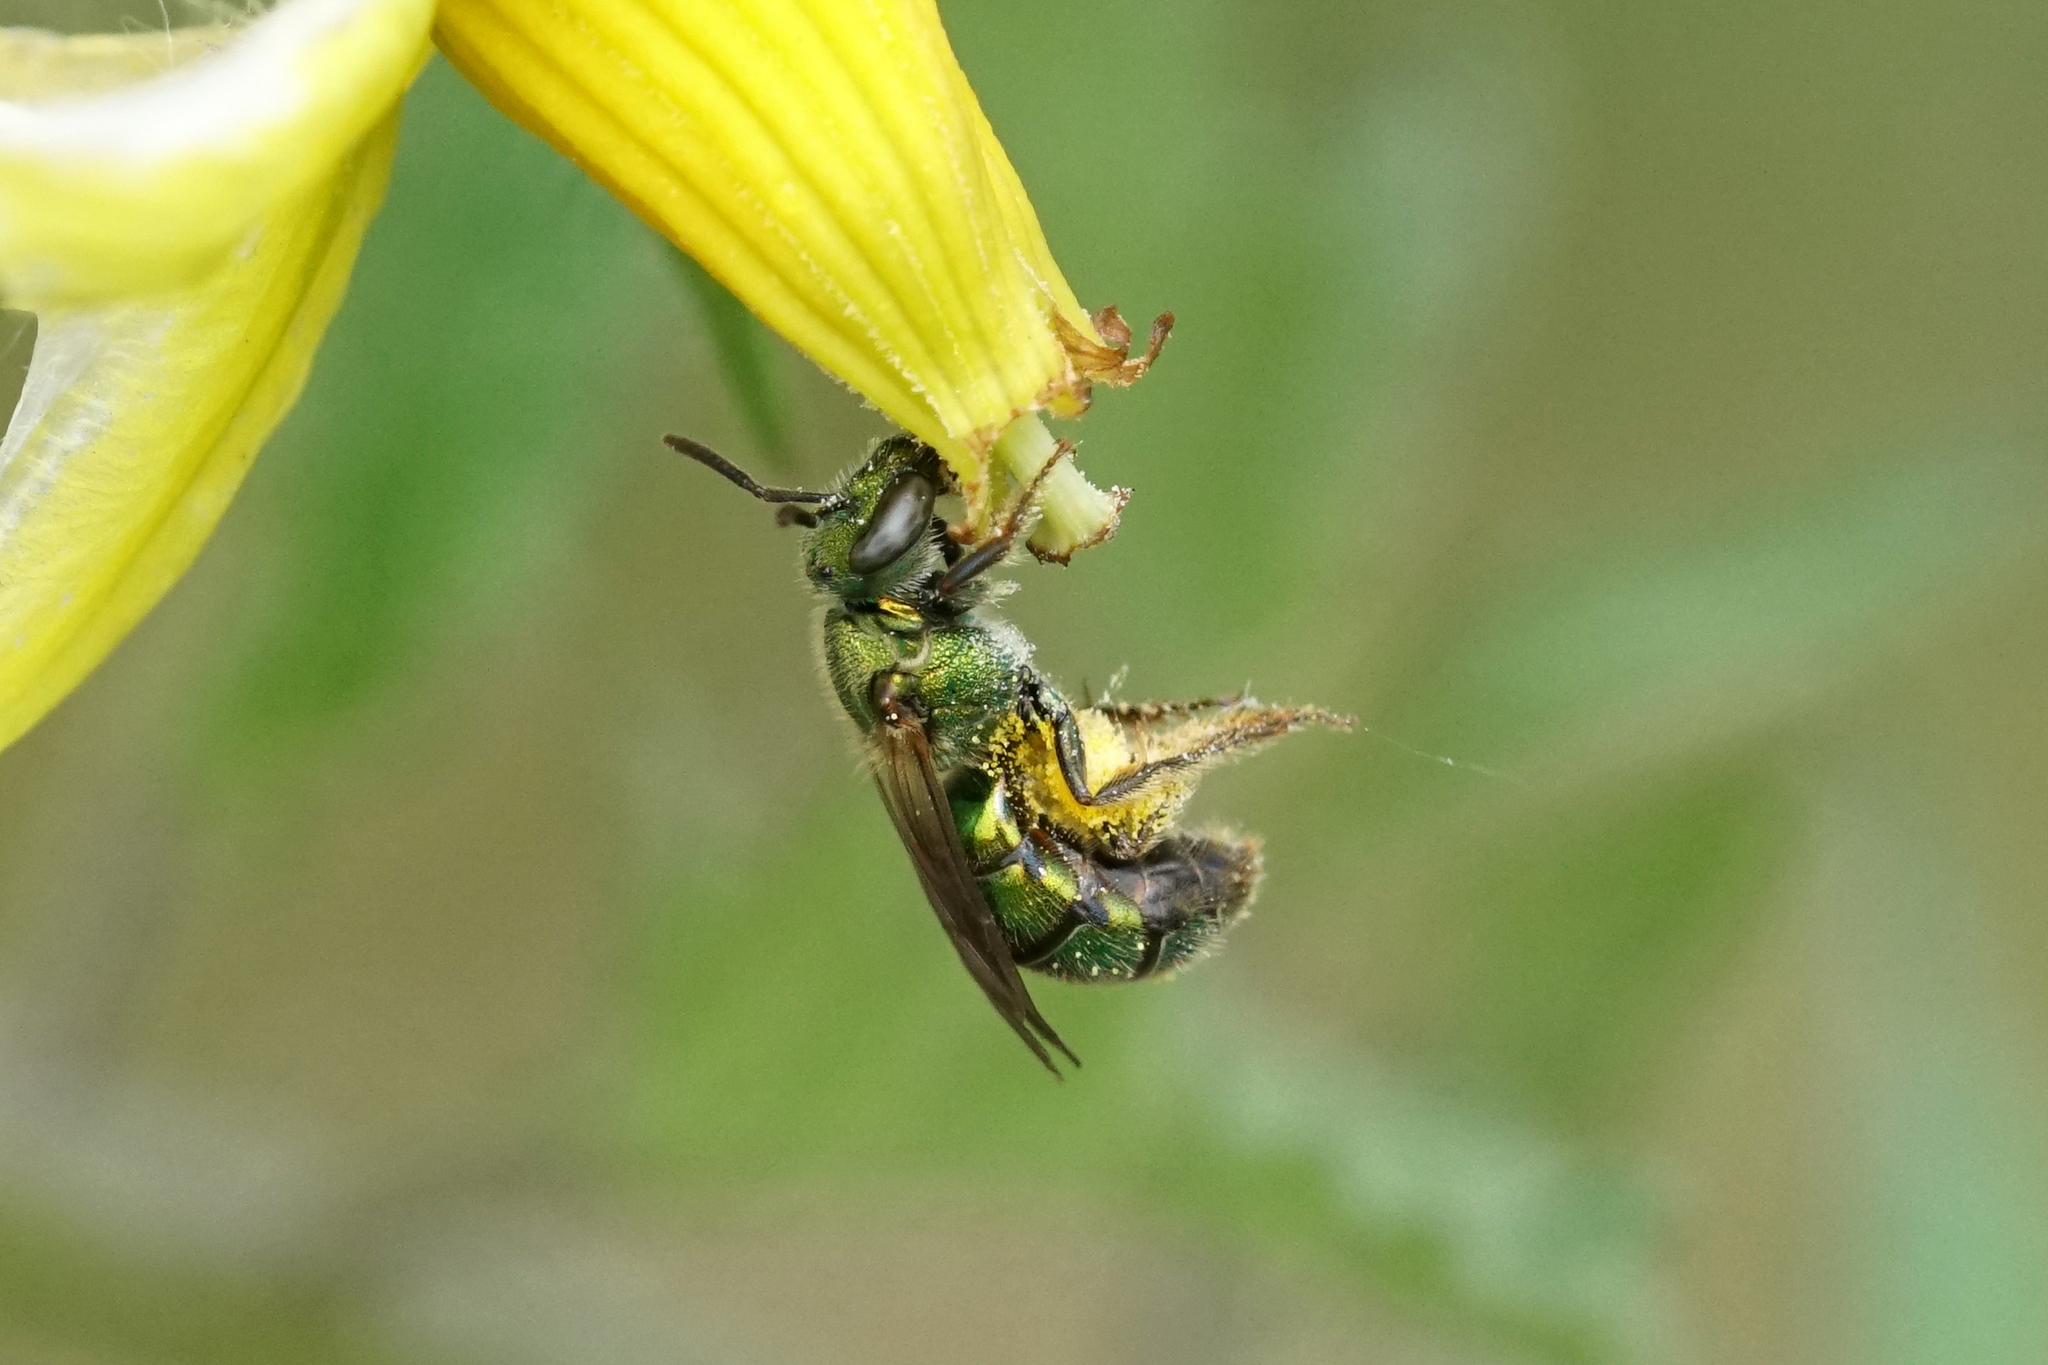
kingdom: Animalia
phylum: Arthropoda
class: Insecta
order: Hymenoptera
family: Halictidae
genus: Augochlorella
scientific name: Augochlorella aurata
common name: Golden sweat bee
